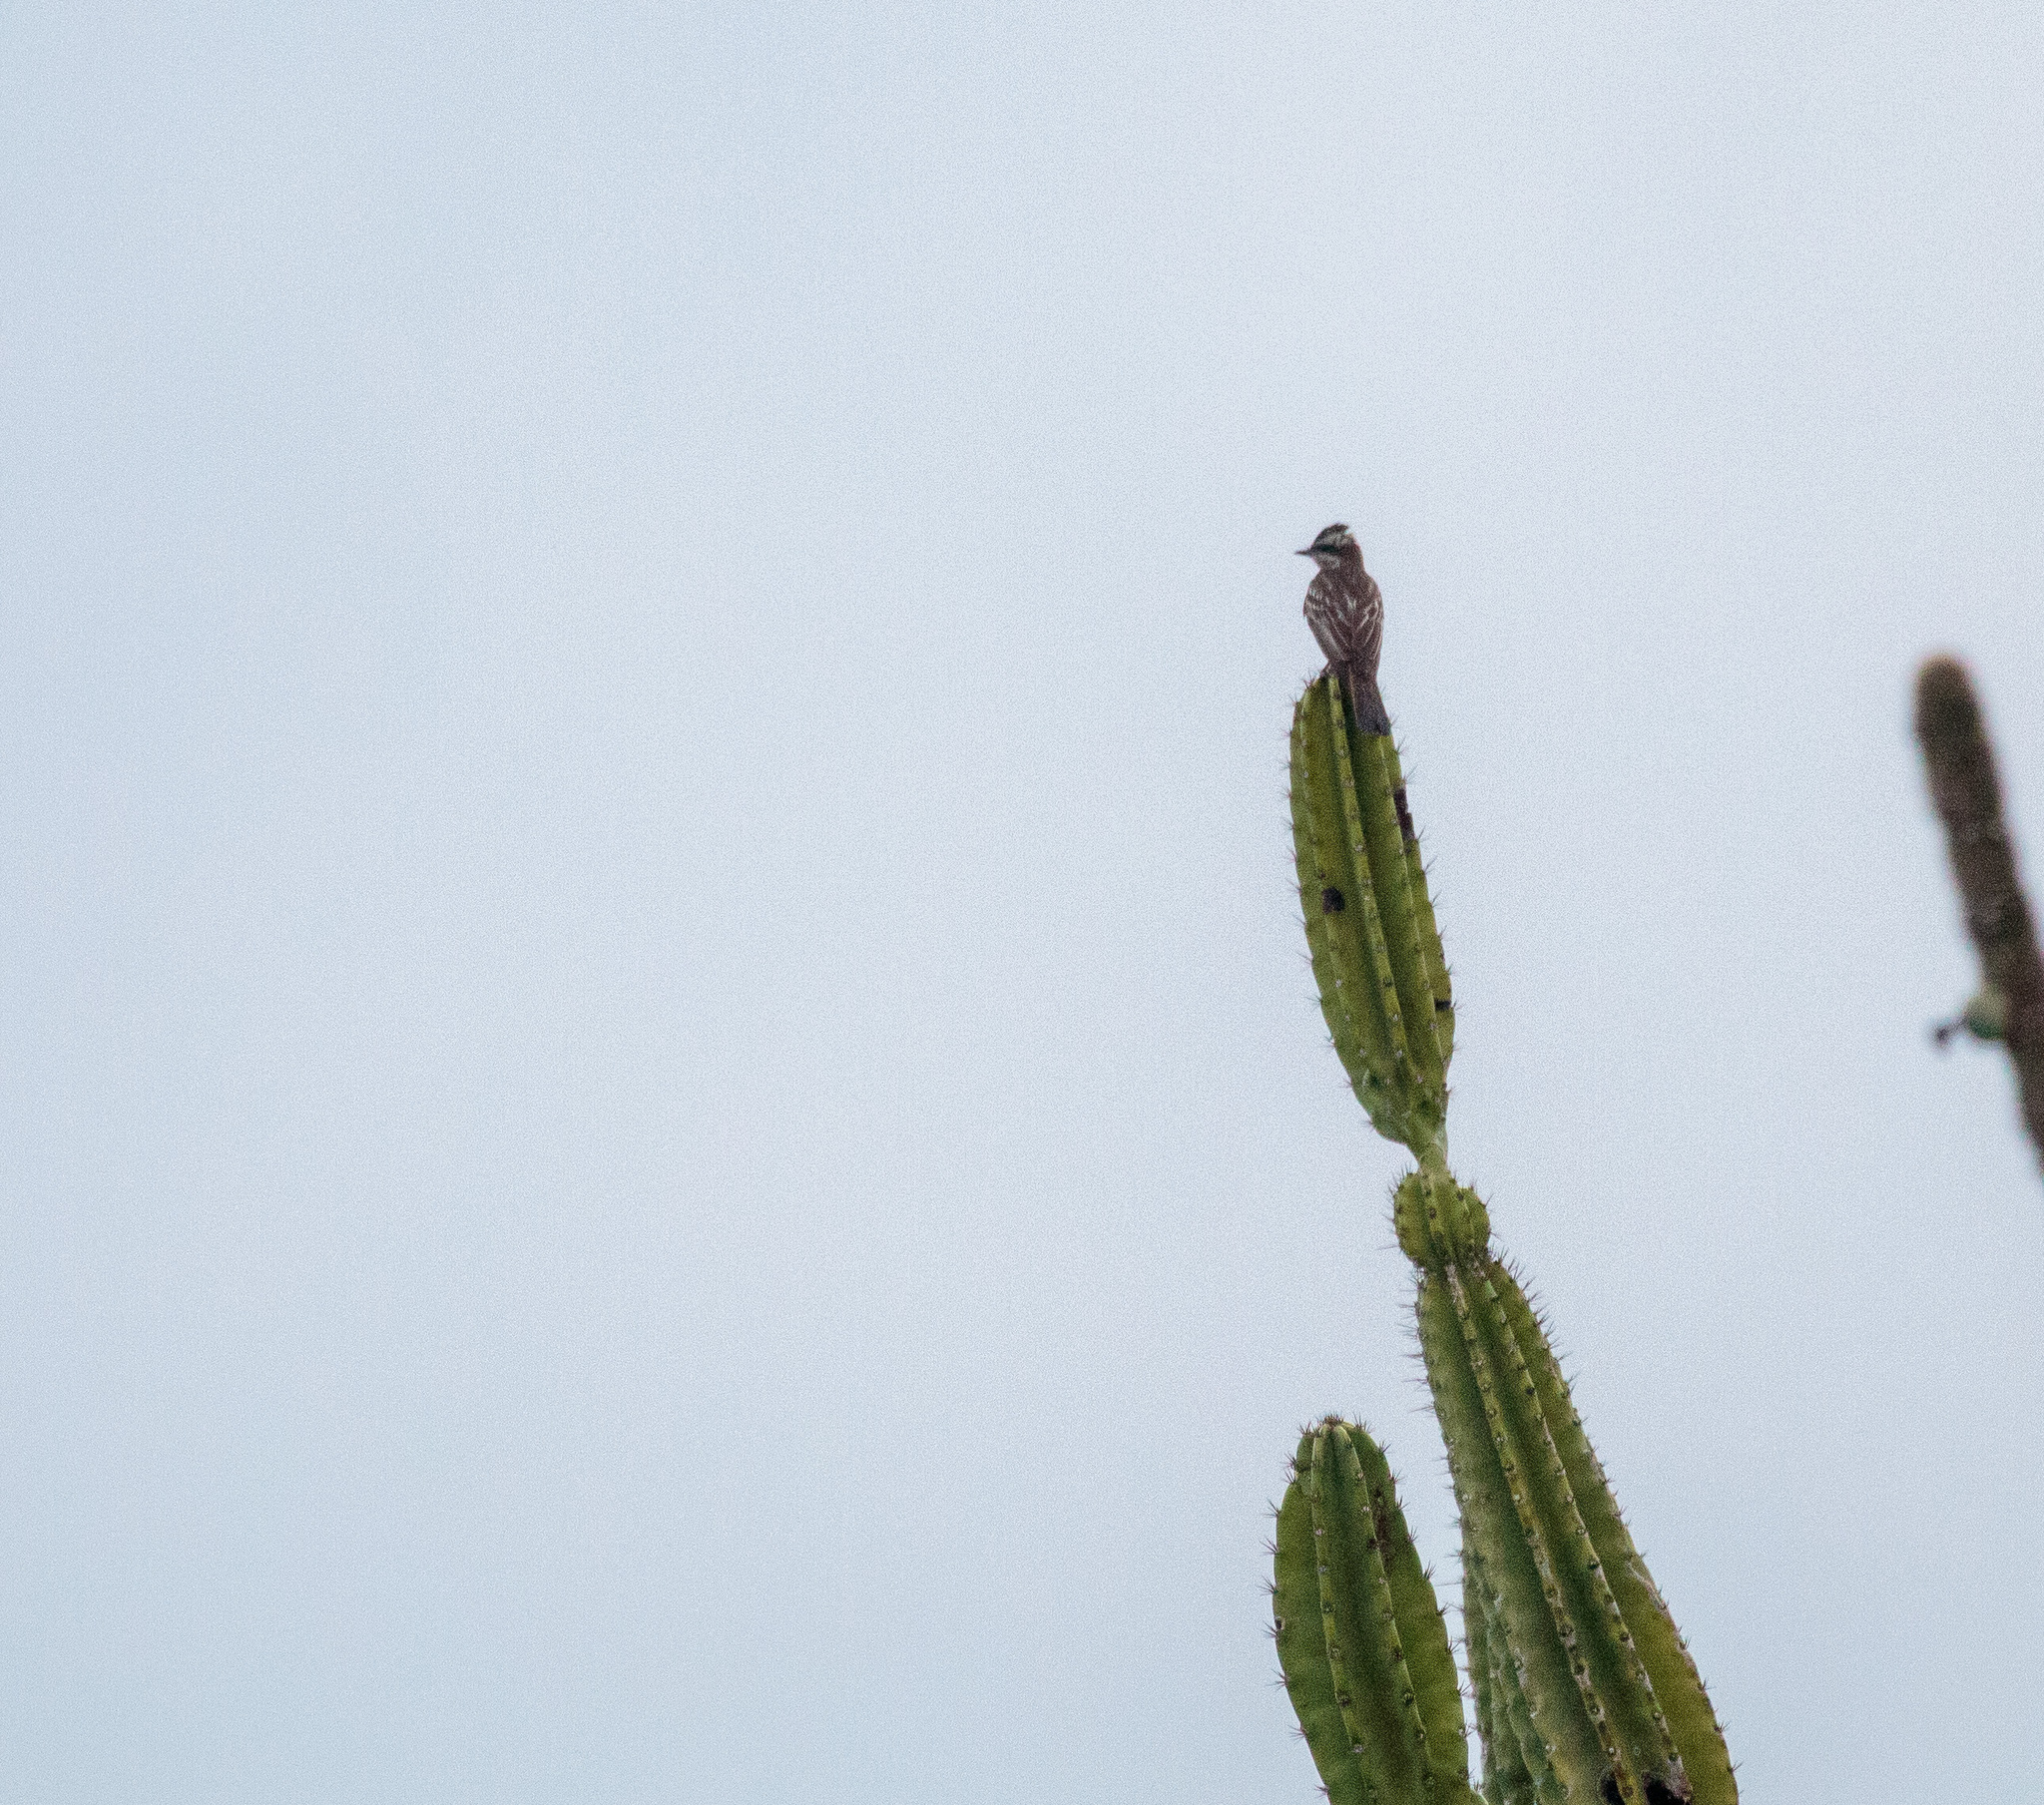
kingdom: Animalia
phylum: Chordata
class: Aves
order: Passeriformes
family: Tyrannidae
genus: Empidonomus
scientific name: Empidonomus varius
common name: Variegated flycatcher
